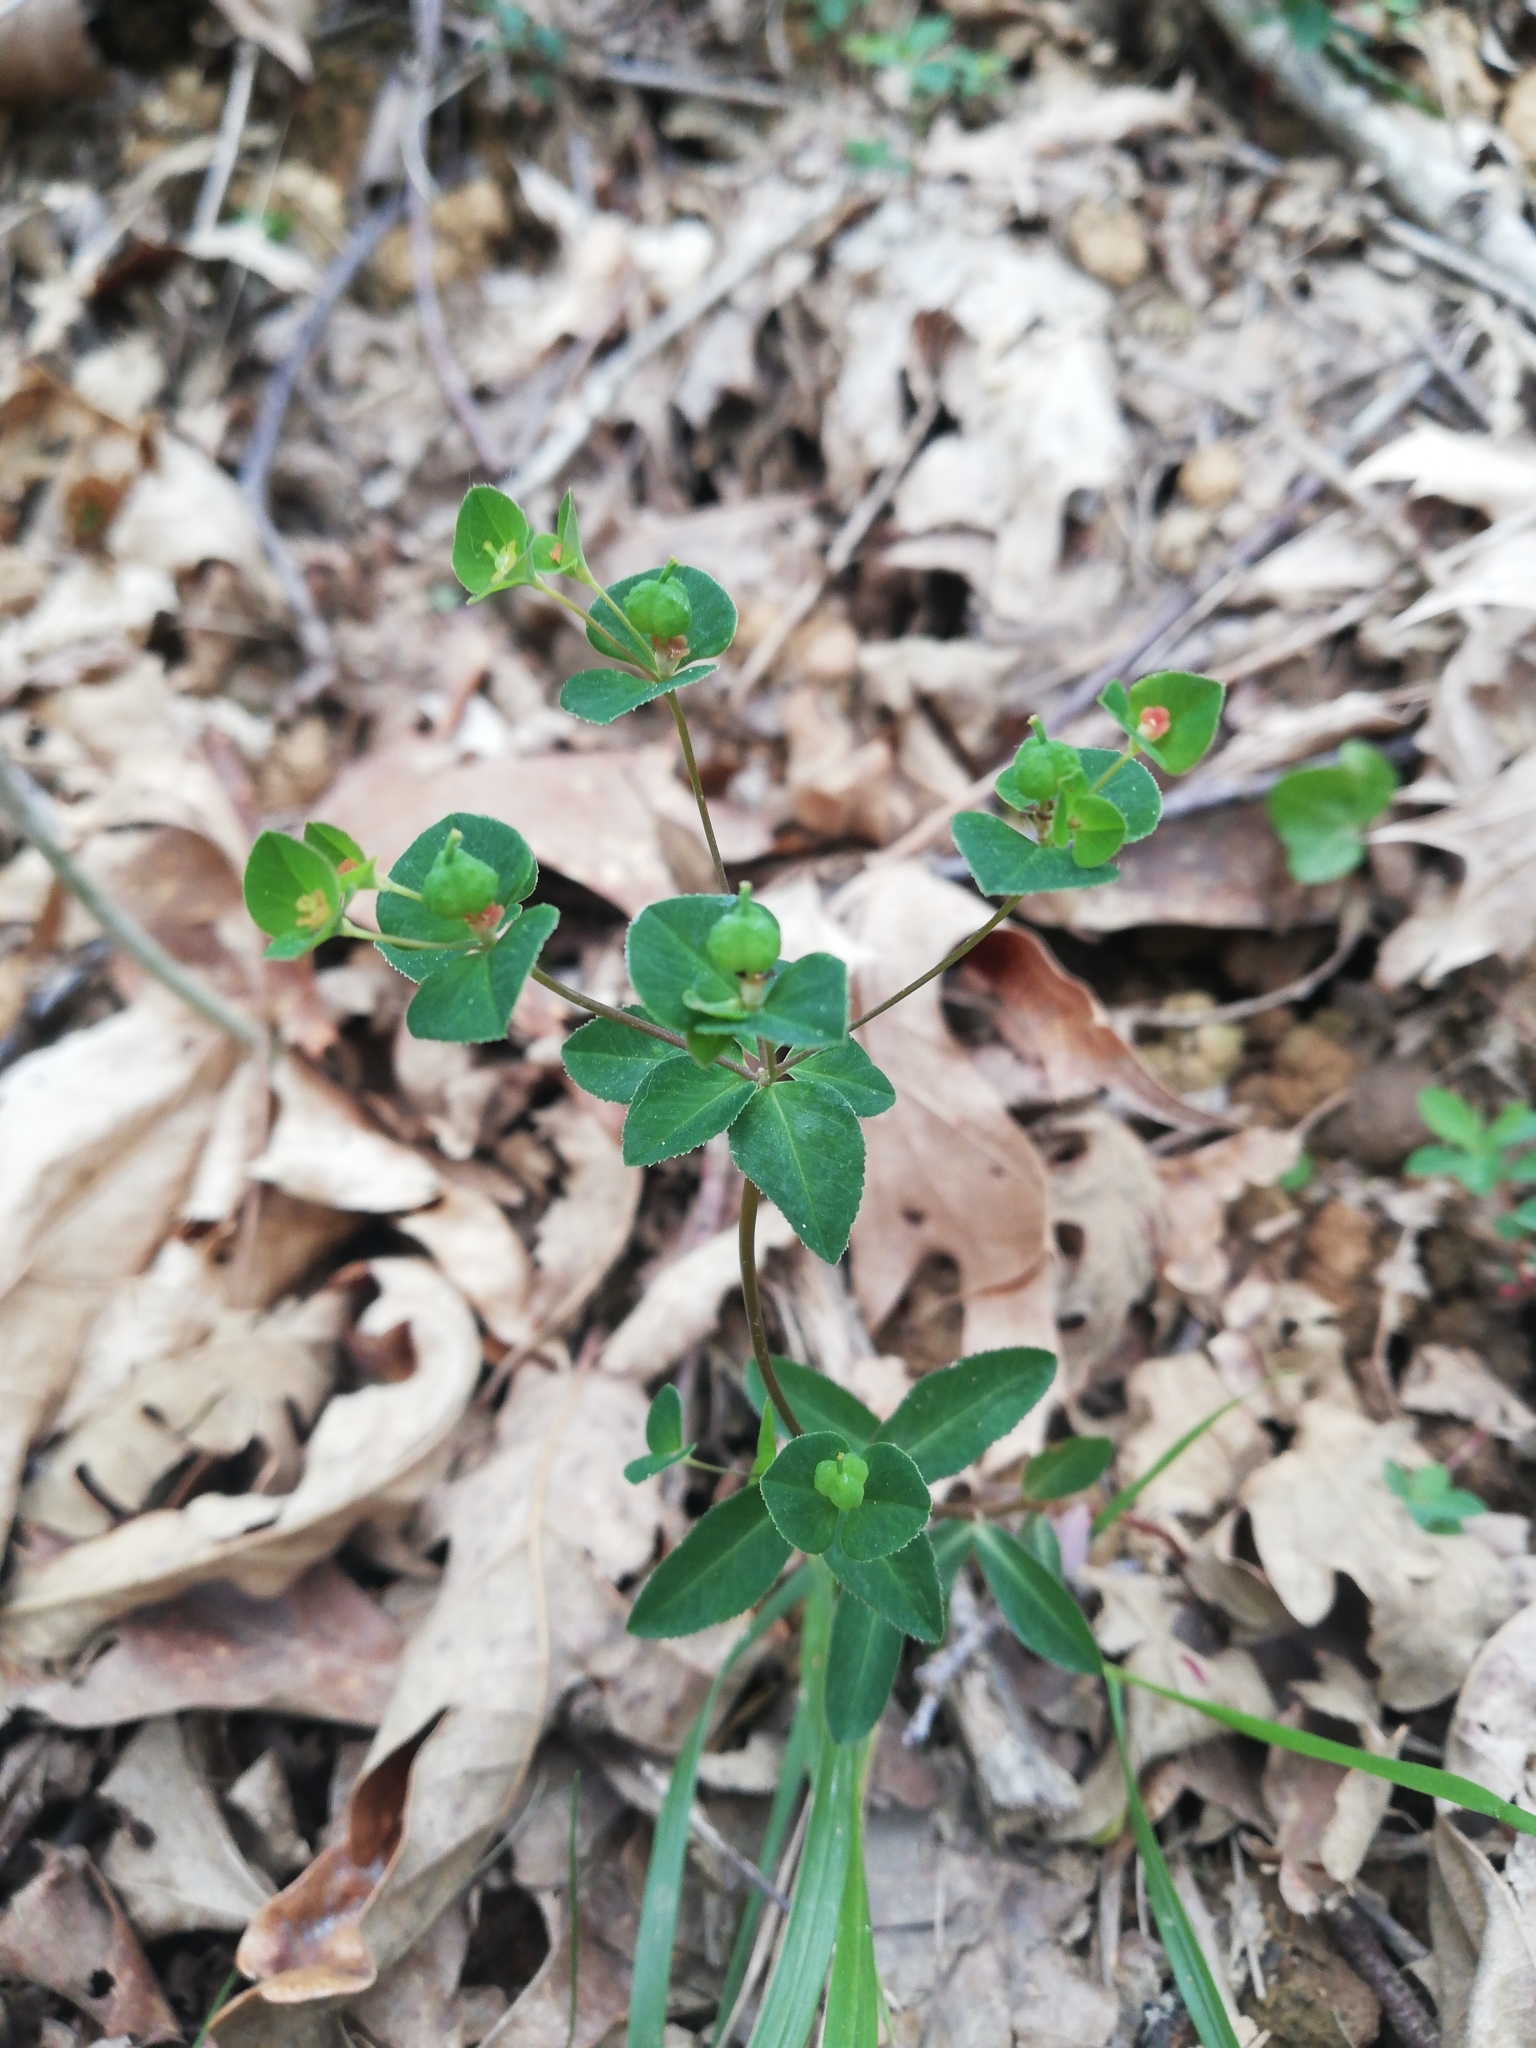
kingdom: Plantae
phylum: Tracheophyta
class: Magnoliopsida
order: Malpighiales
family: Euphorbiaceae
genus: Euphorbia
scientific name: Euphorbia angulata
